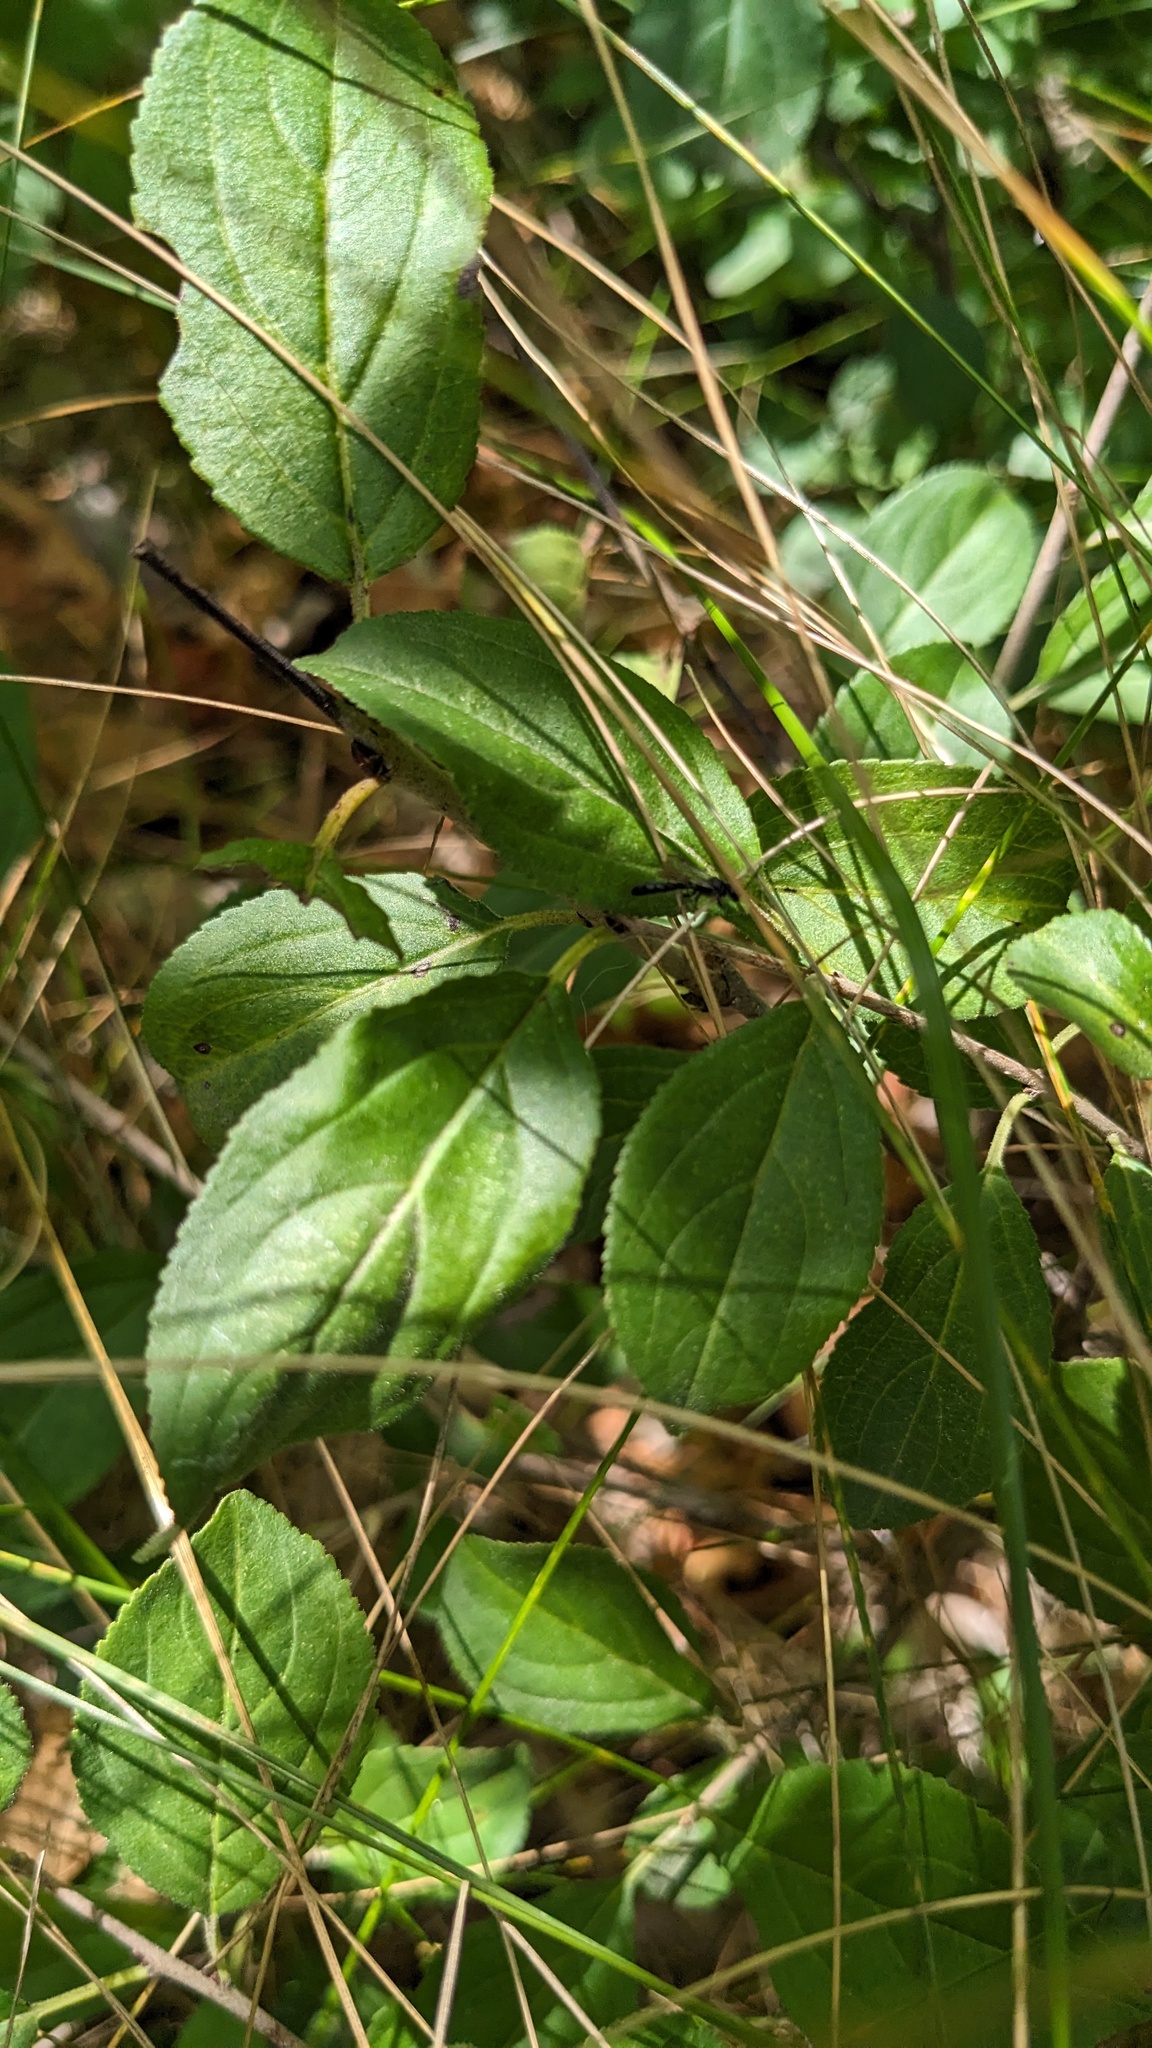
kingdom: Plantae
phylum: Tracheophyta
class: Magnoliopsida
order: Rosales
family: Rhamnaceae
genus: Rhamnus
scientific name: Rhamnus cathartica
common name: Common buckthorn
